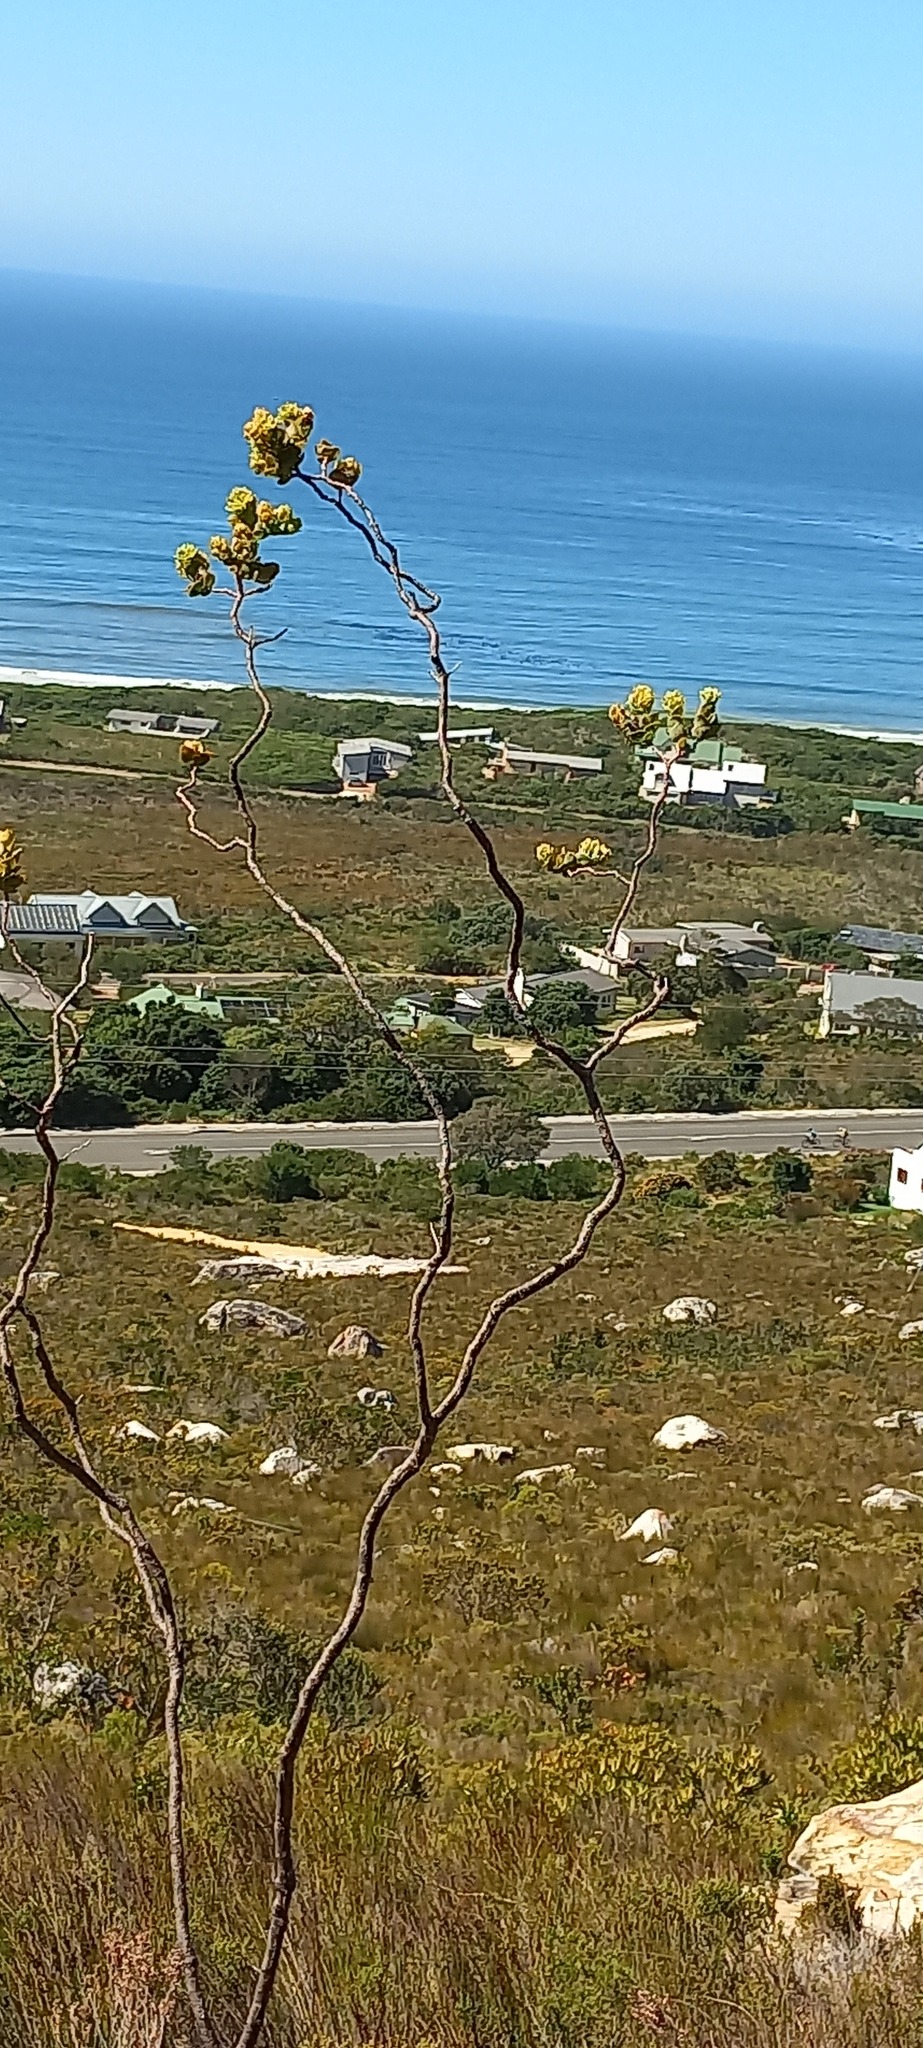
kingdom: Plantae
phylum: Tracheophyta
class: Magnoliopsida
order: Santalales
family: Thesiaceae
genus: Thesium
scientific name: Thesium euphorbioides
